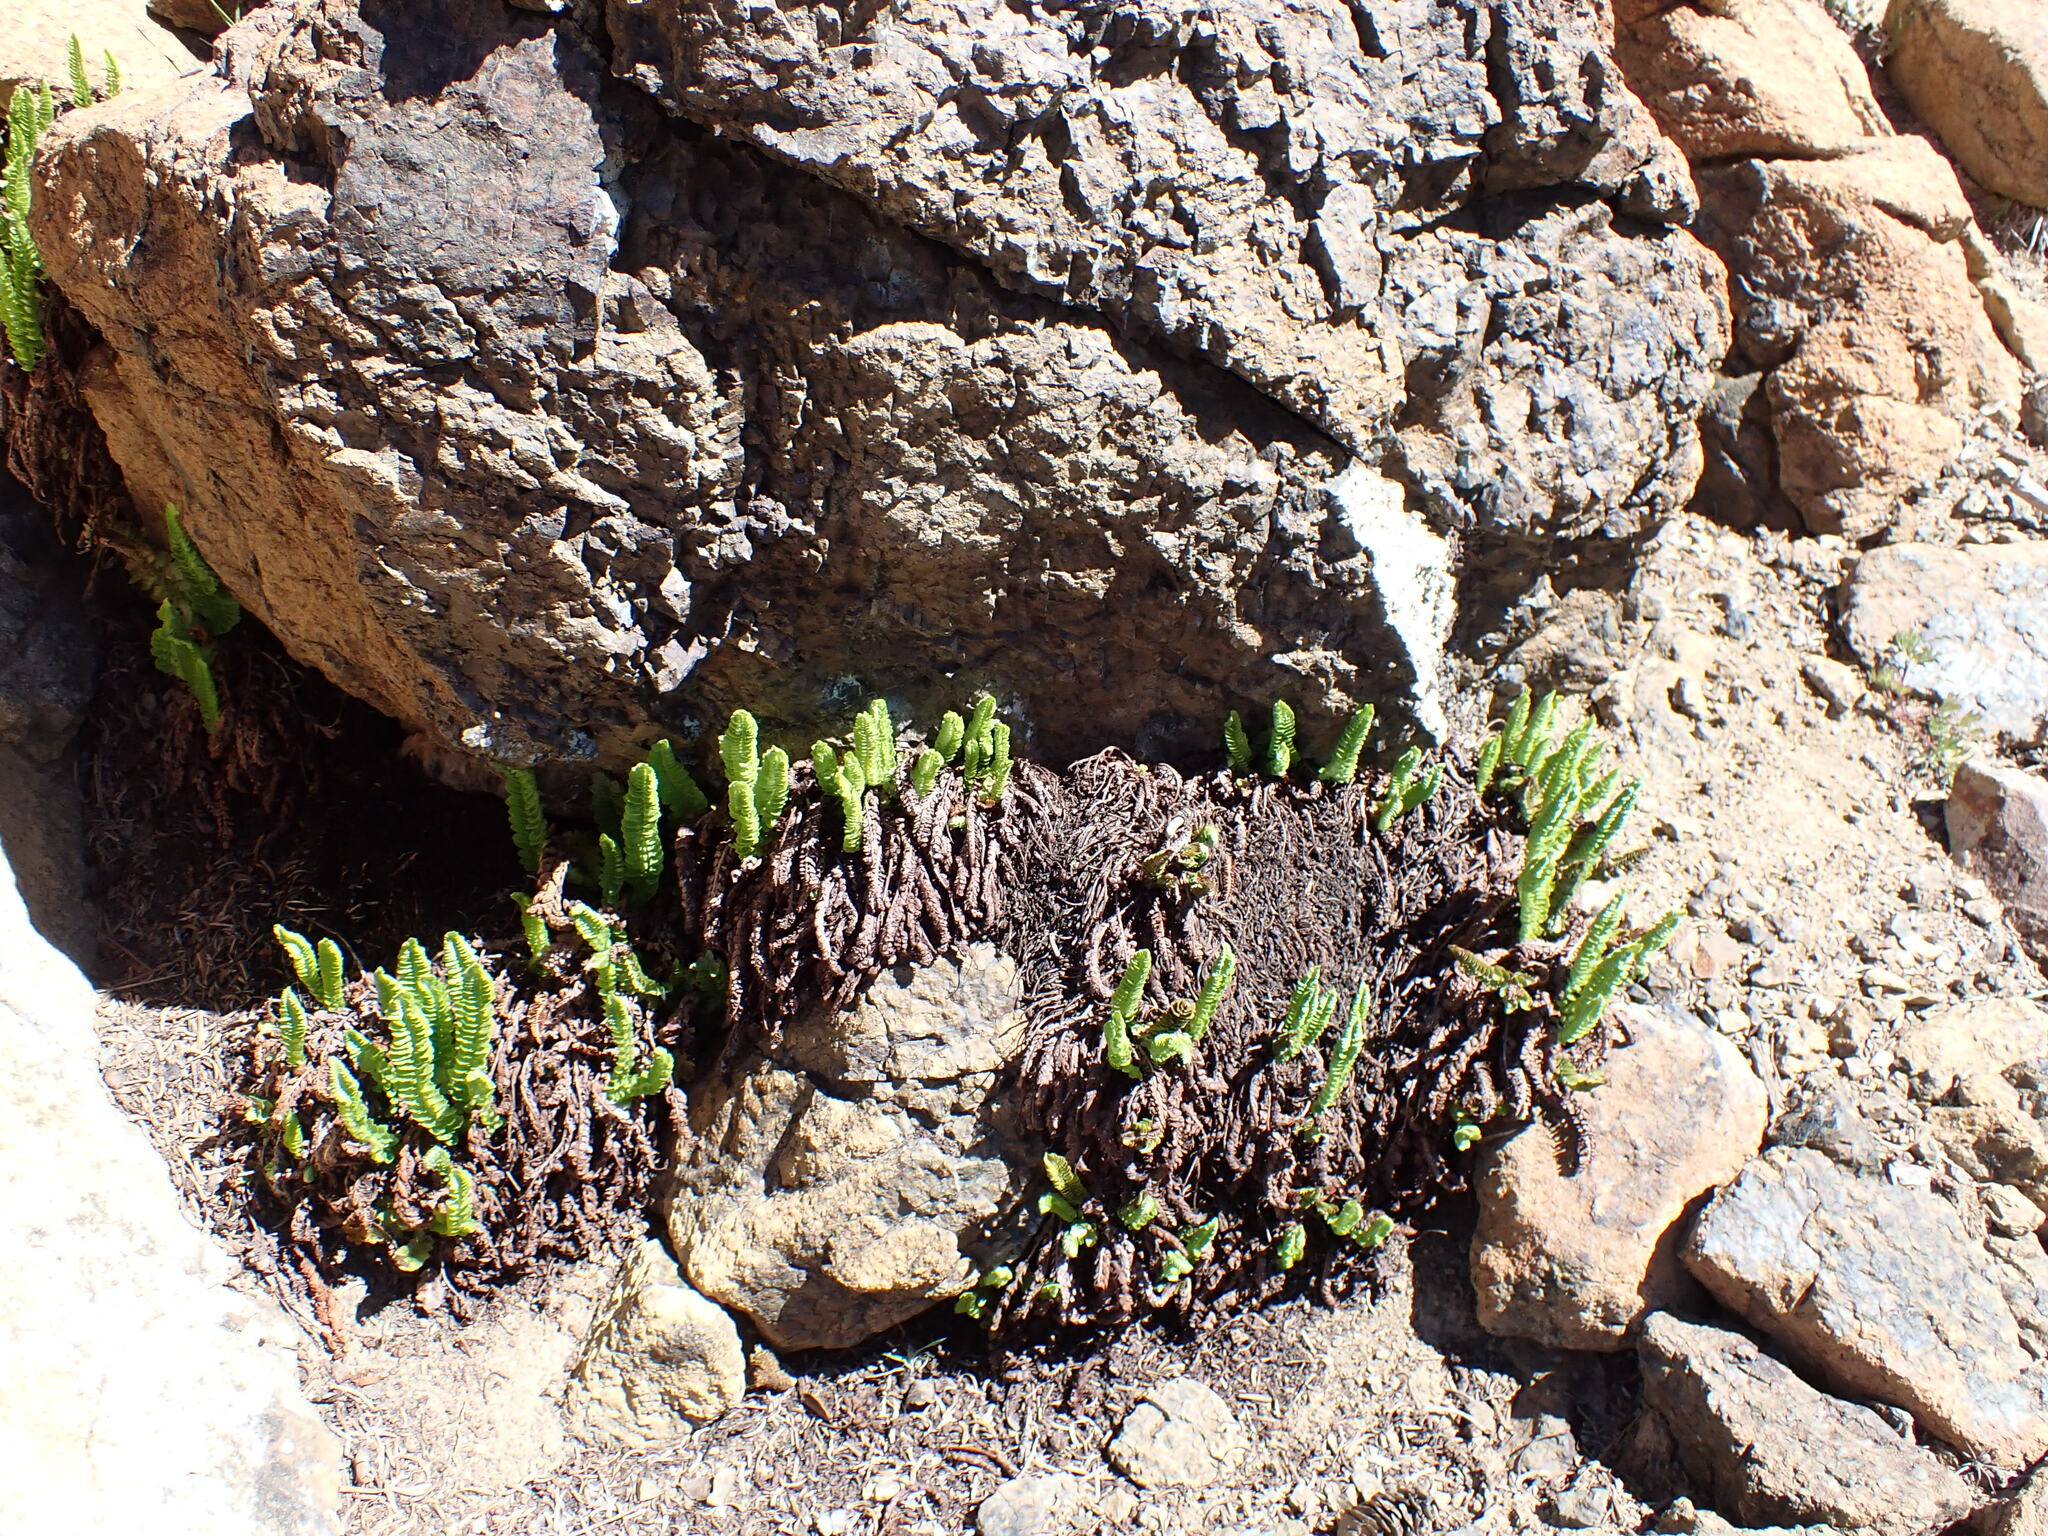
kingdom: Plantae
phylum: Tracheophyta
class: Polypodiopsida
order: Polypodiales
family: Dryopteridaceae
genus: Polystichum
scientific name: Polystichum lemmonii
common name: Lemmon's holly fern
